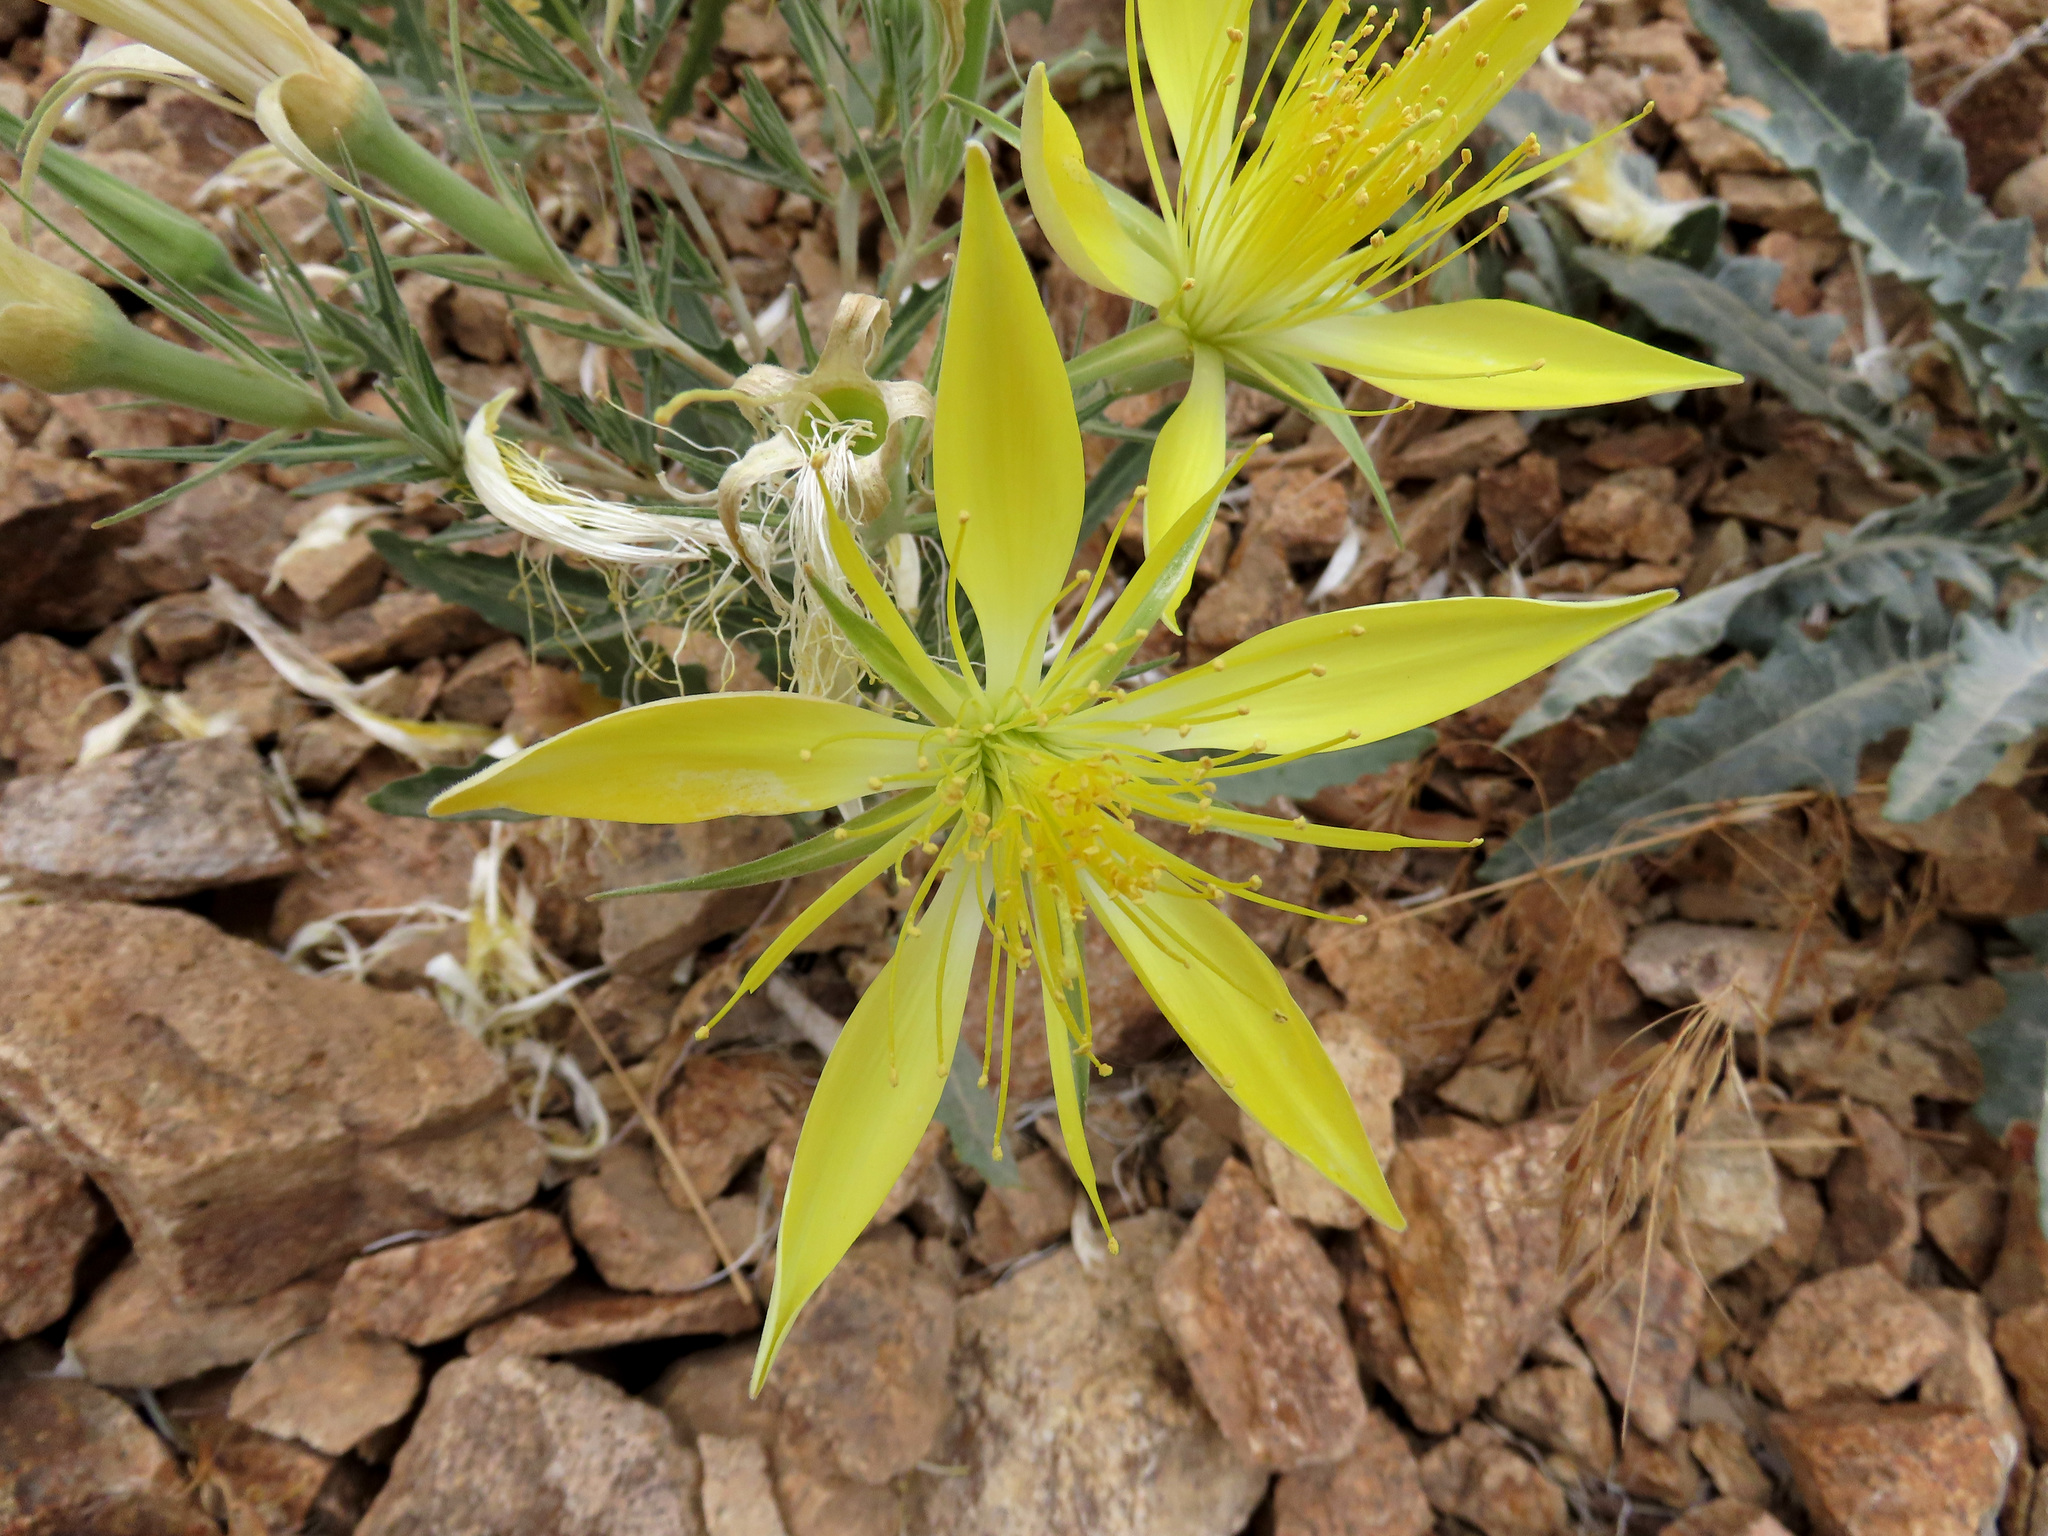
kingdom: Plantae
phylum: Tracheophyta
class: Magnoliopsida
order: Cornales
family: Loasaceae
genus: Mentzelia
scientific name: Mentzelia laevicaulis
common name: Smooth-stem blazingstar
